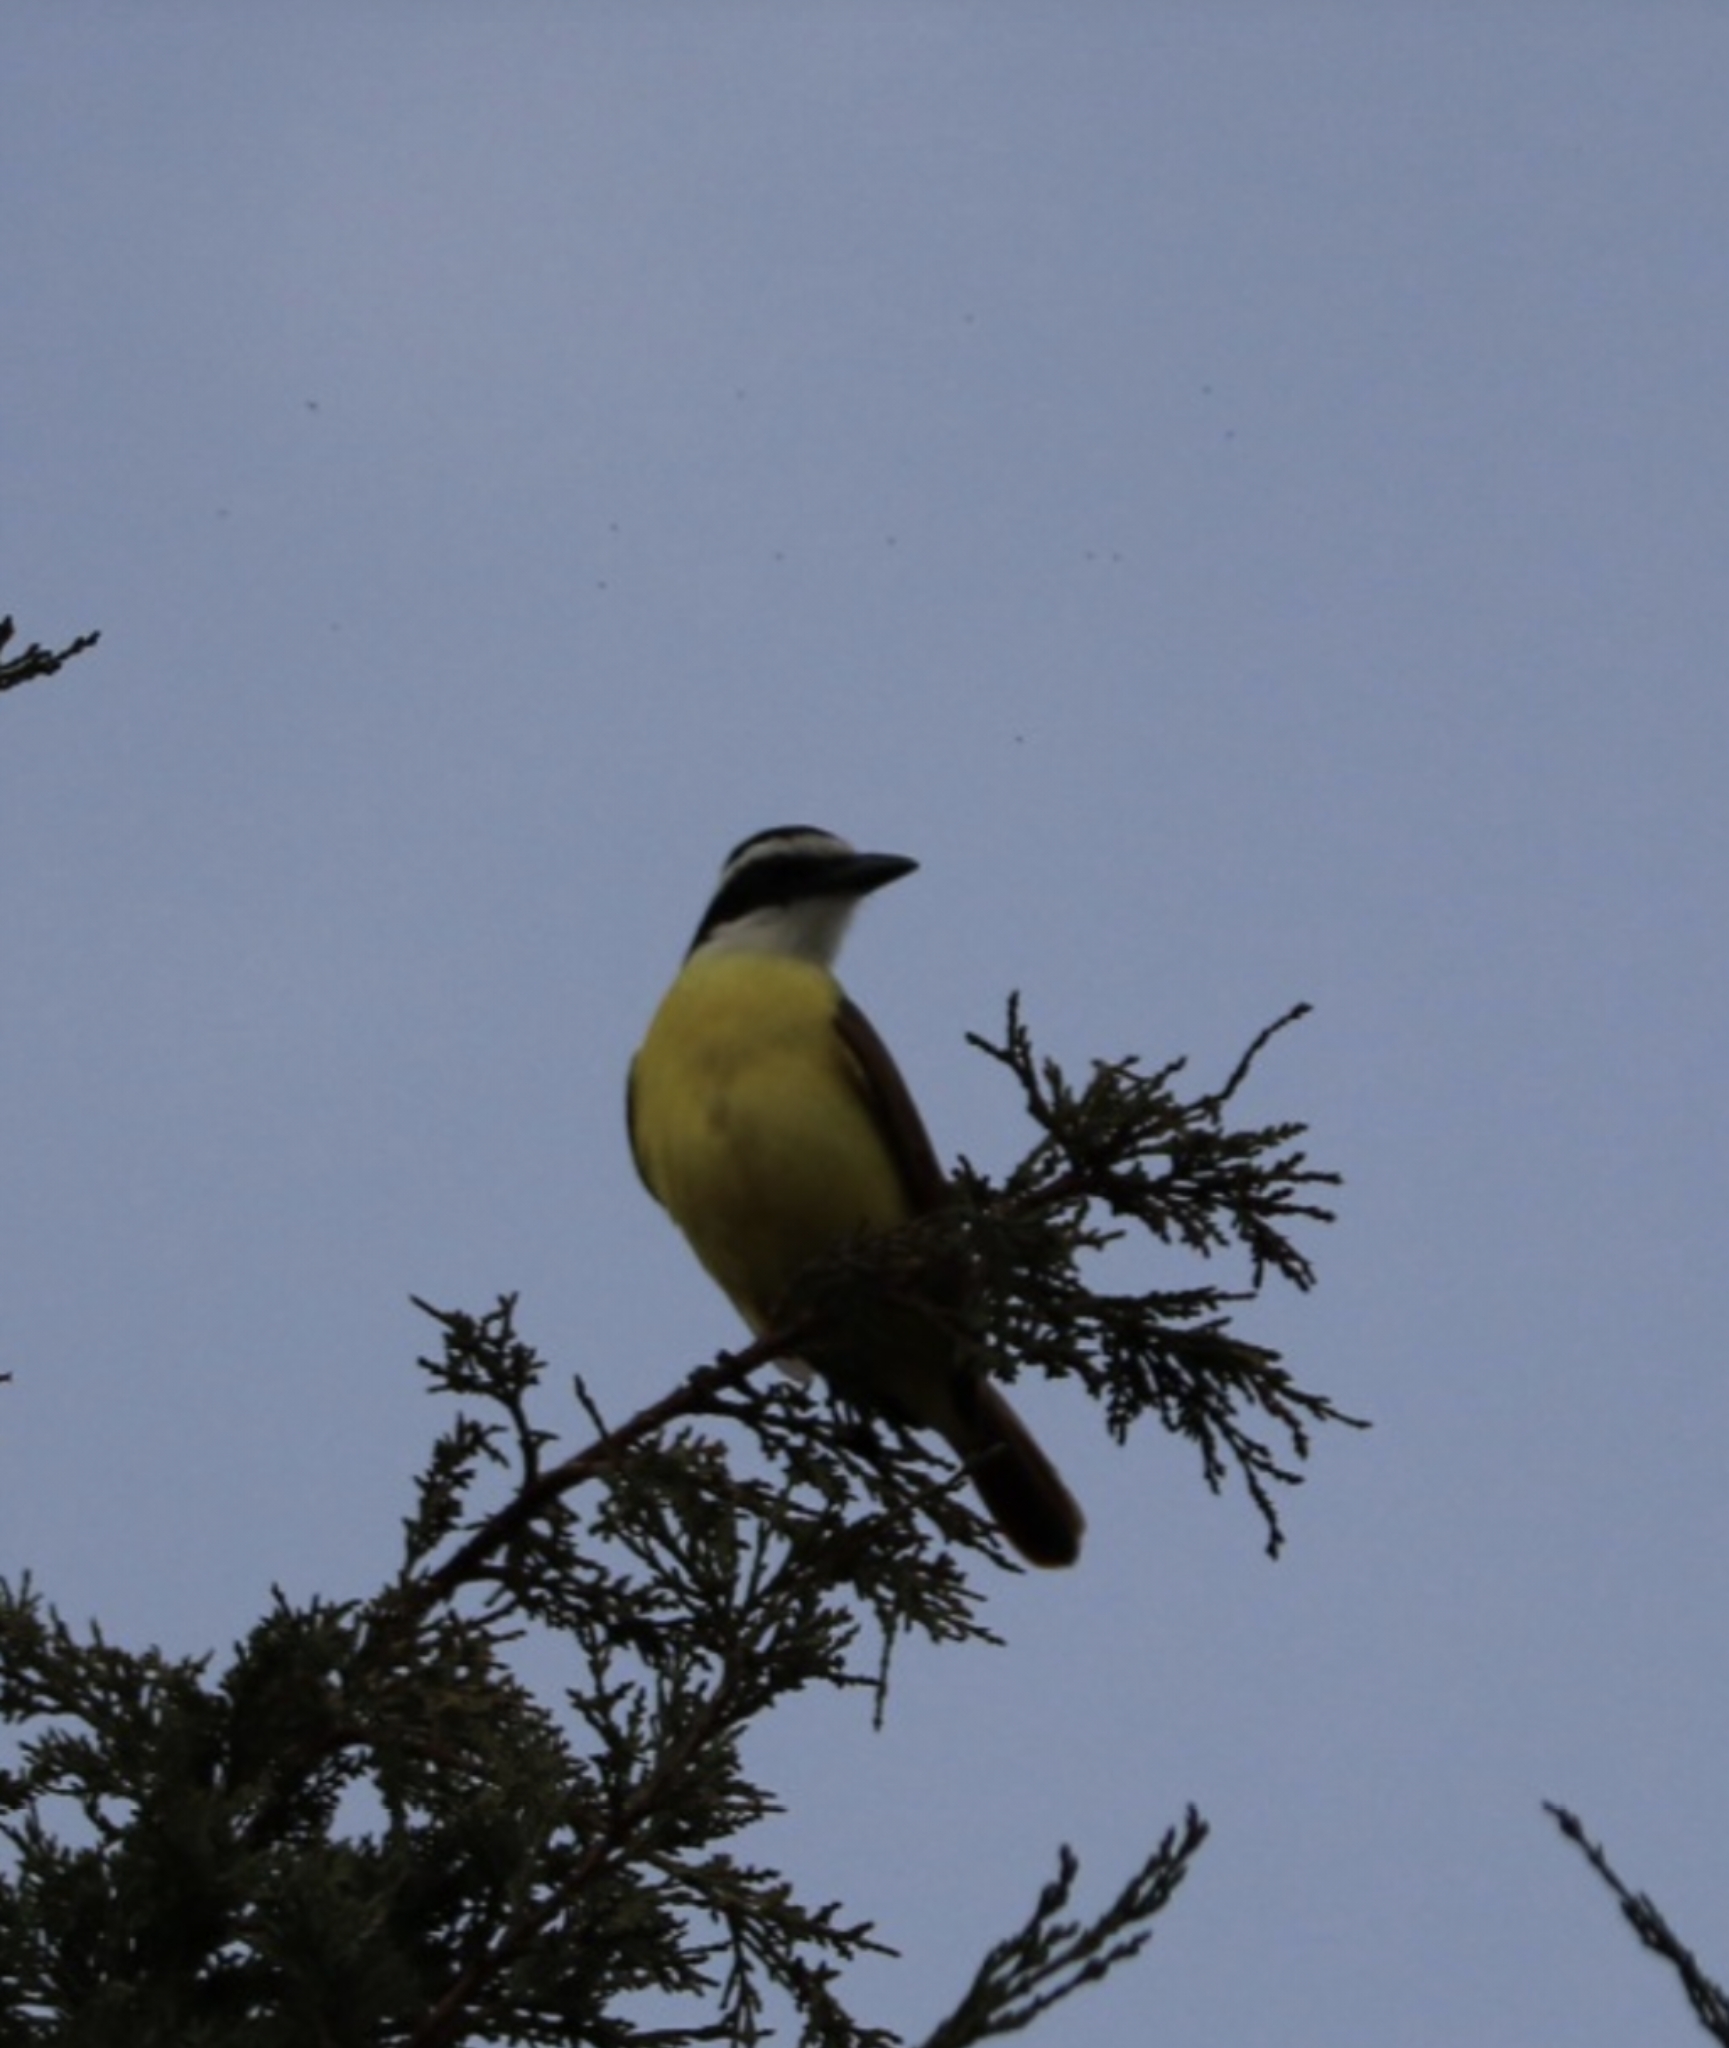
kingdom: Animalia
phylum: Chordata
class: Aves
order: Passeriformes
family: Tyrannidae
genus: Pitangus
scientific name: Pitangus sulphuratus
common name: Great kiskadee
